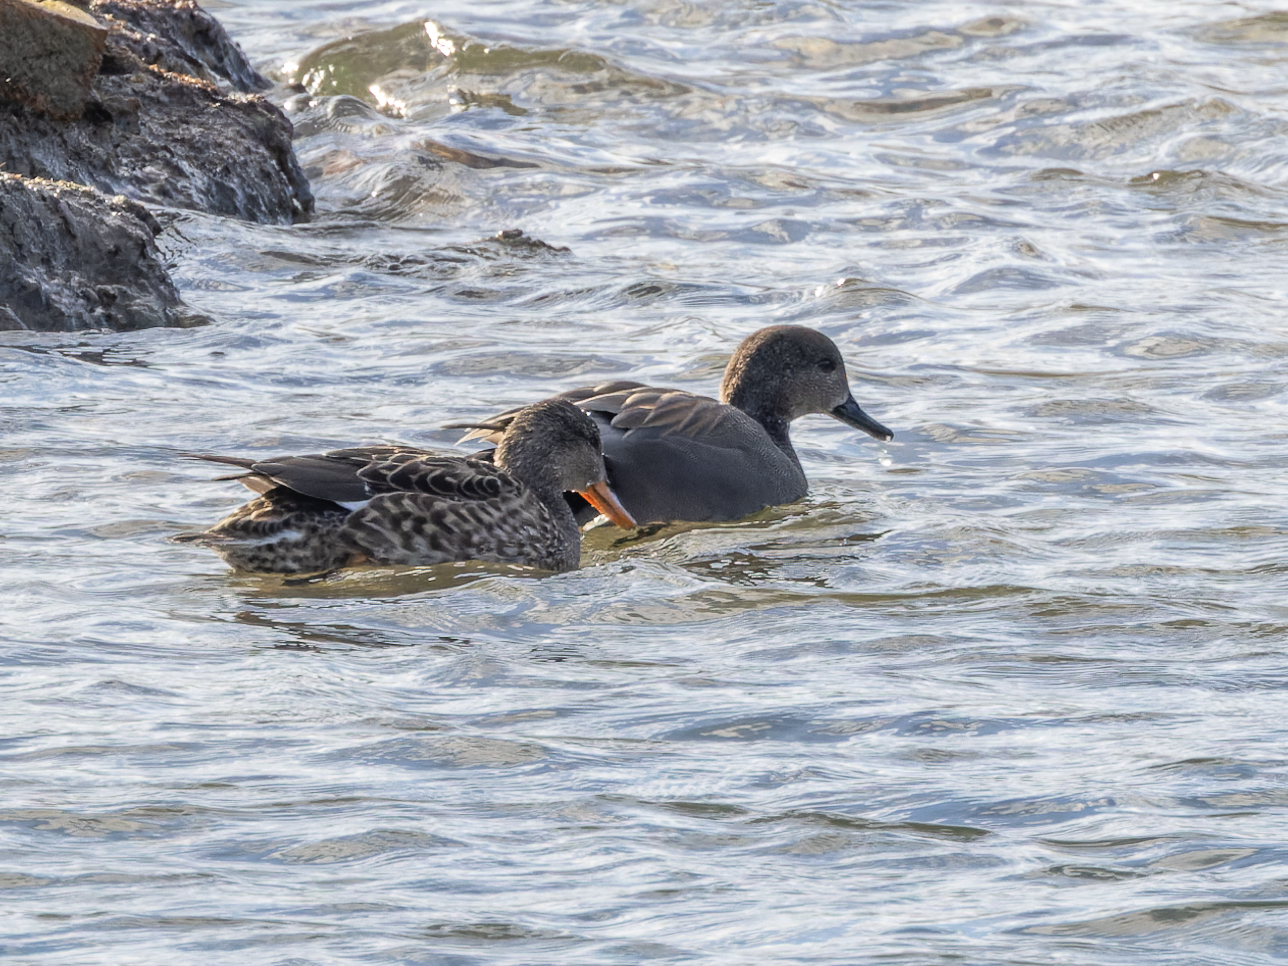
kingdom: Animalia
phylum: Chordata
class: Aves
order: Anseriformes
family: Anatidae
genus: Mareca
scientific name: Mareca strepera
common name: Gadwall
